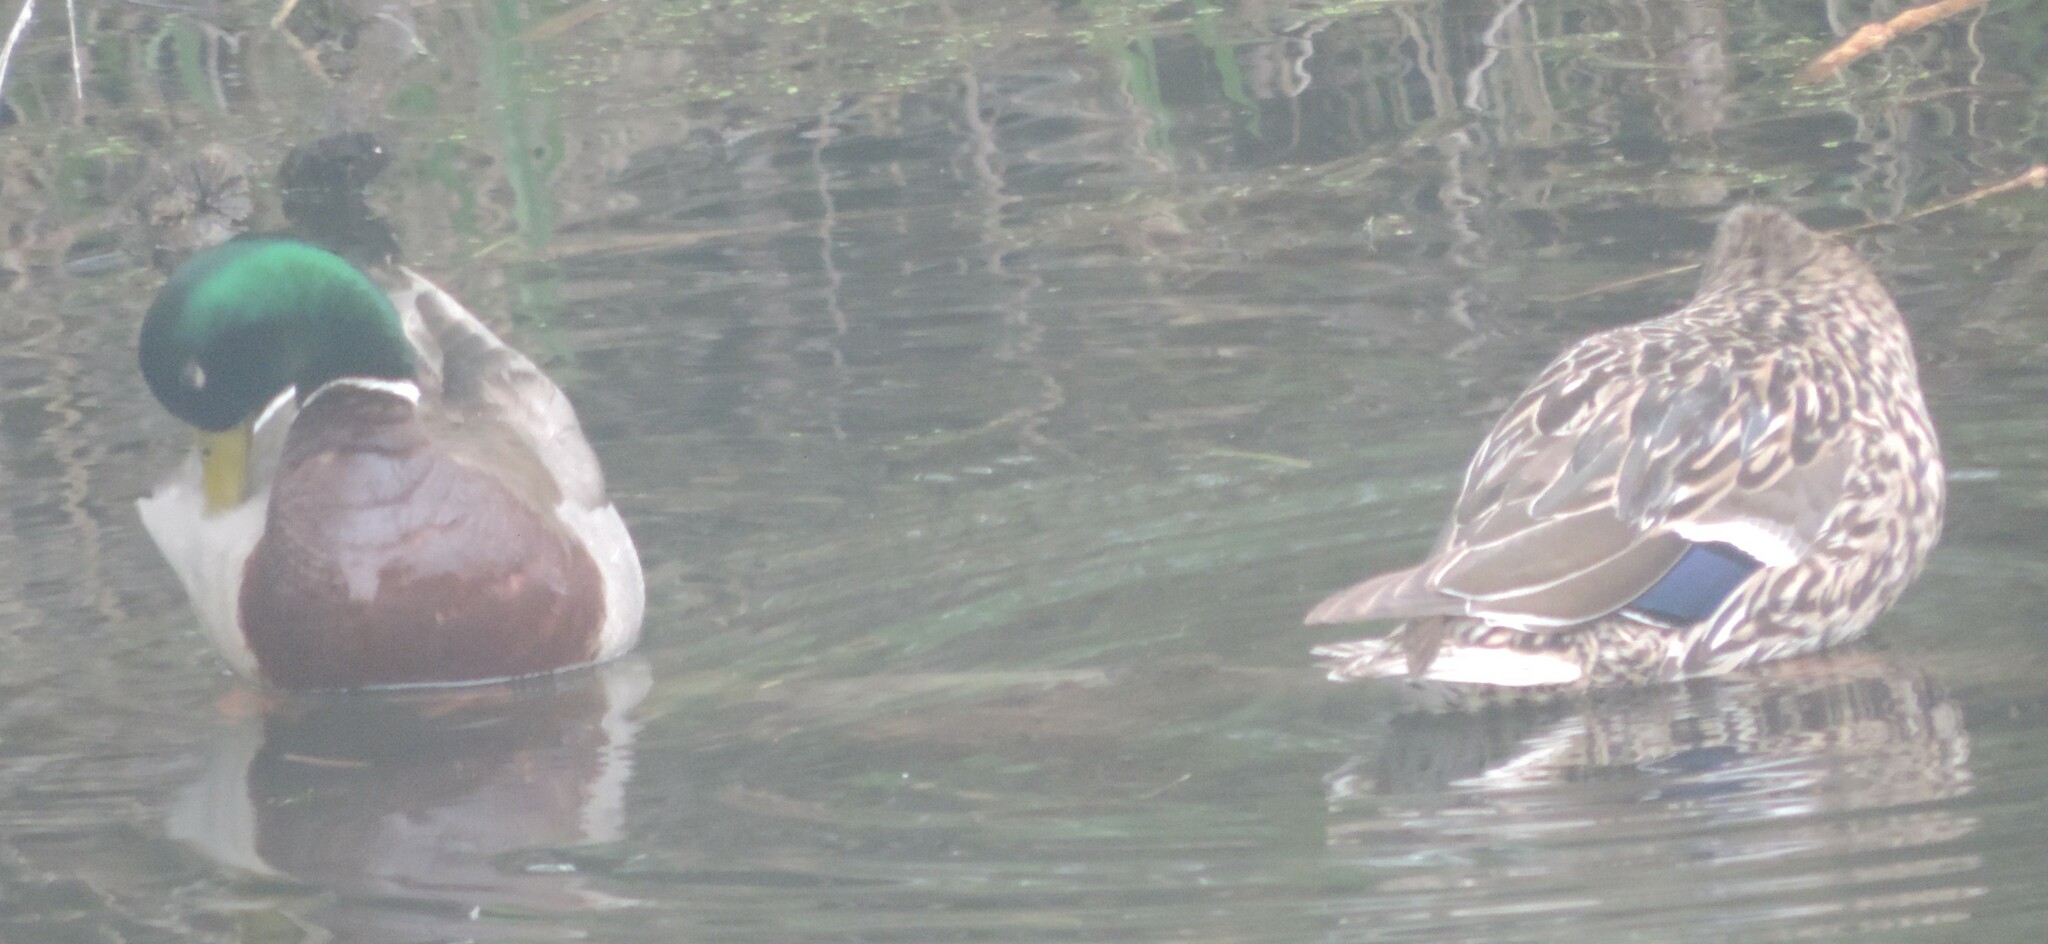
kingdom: Animalia
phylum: Chordata
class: Aves
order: Anseriformes
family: Anatidae
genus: Anas
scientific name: Anas platyrhynchos
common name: Mallard
